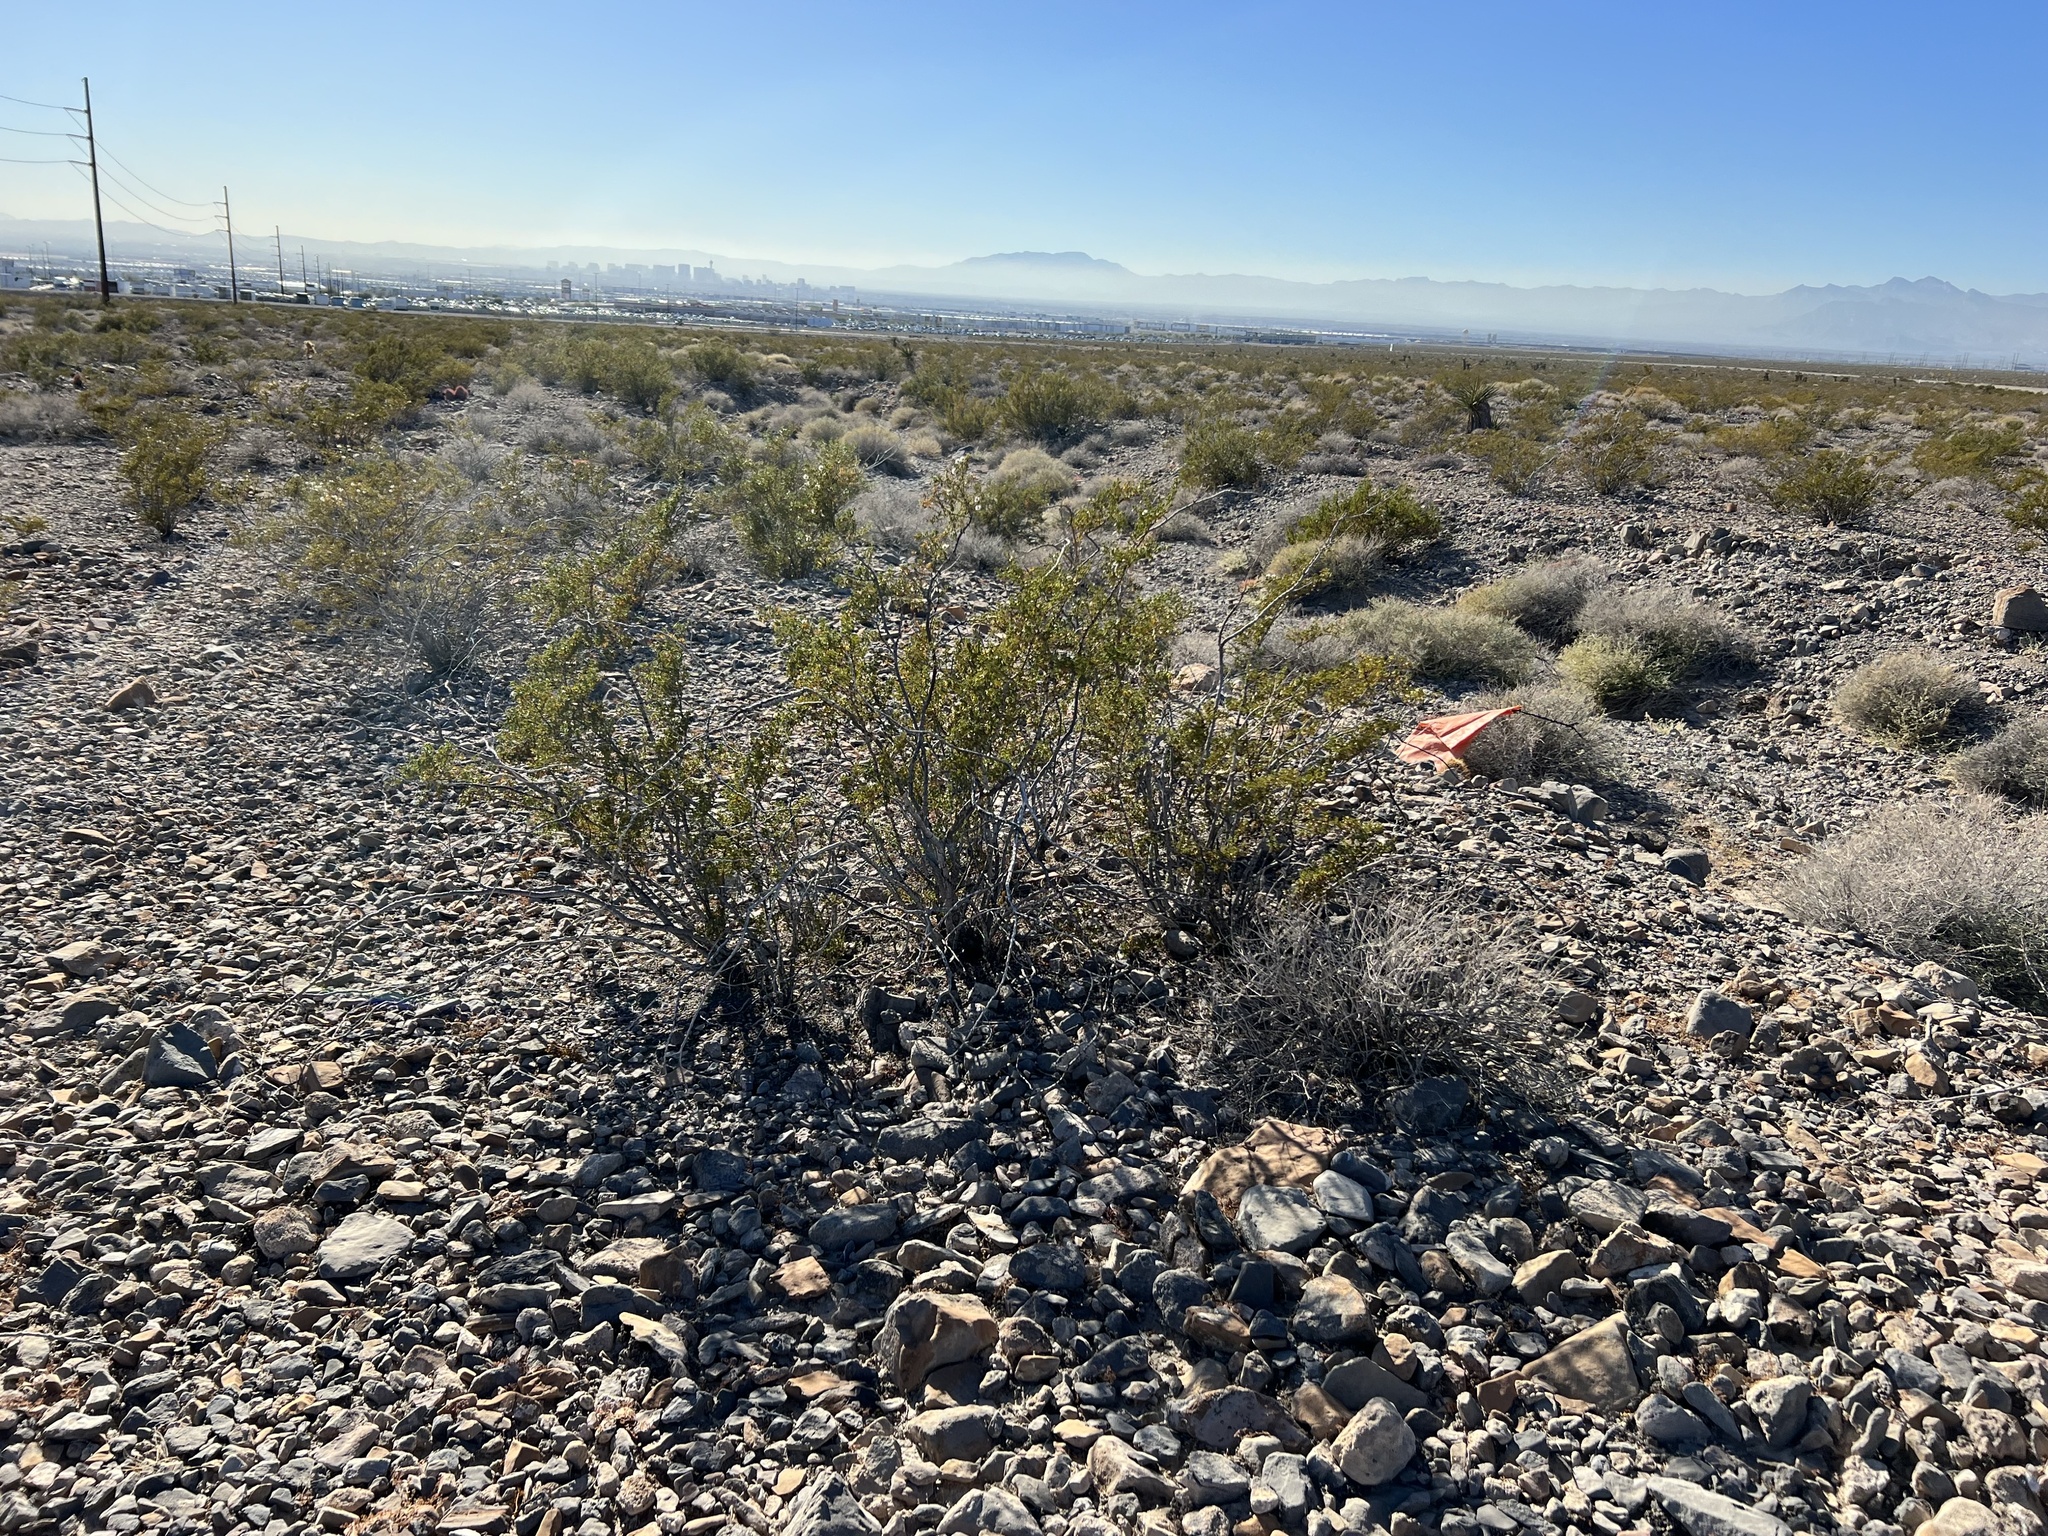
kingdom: Plantae
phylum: Tracheophyta
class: Magnoliopsida
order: Zygophyllales
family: Zygophyllaceae
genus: Larrea
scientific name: Larrea tridentata
